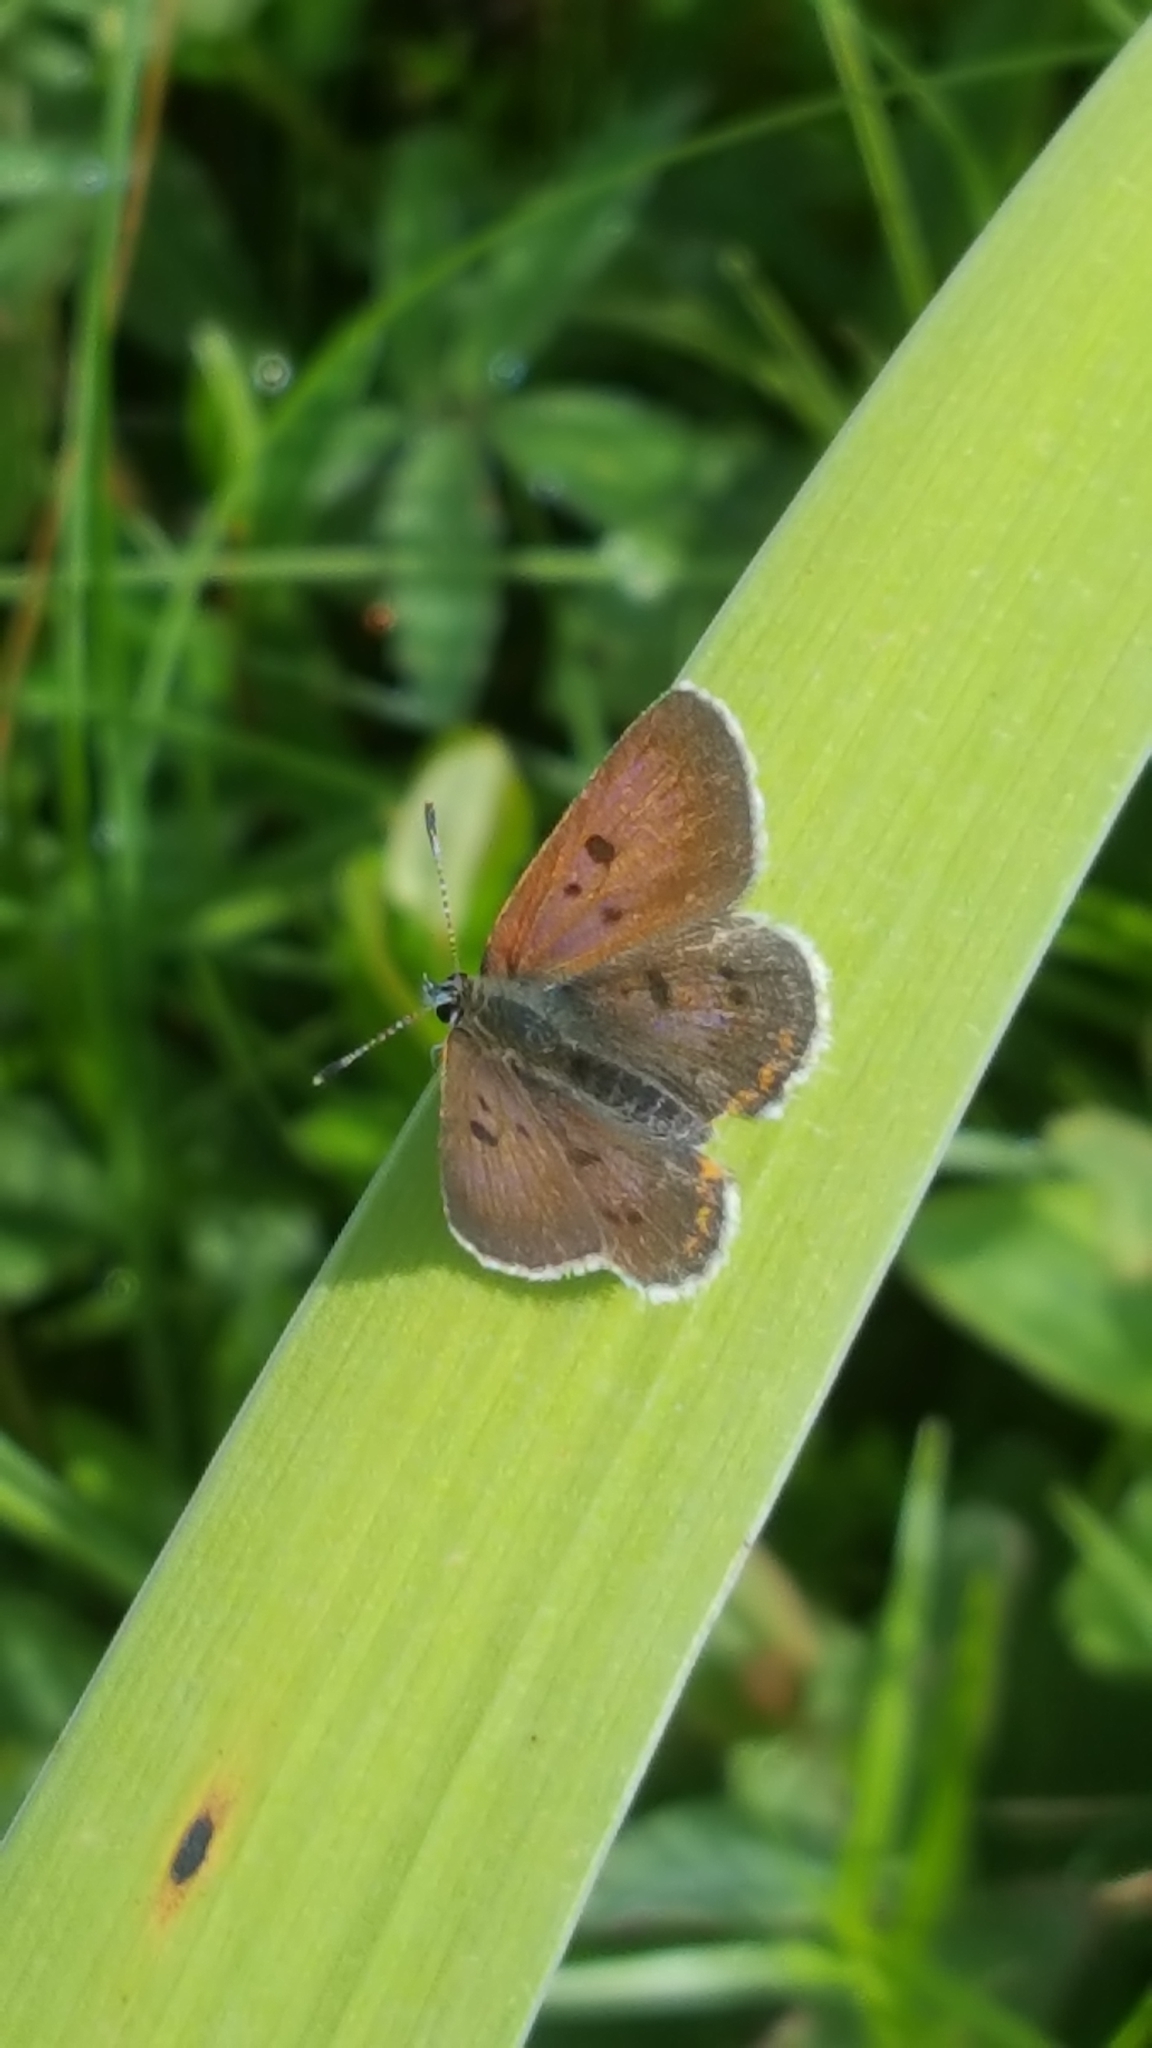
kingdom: Animalia
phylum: Arthropoda
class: Insecta
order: Lepidoptera
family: Lycaenidae
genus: Tharsalea
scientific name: Tharsalea epixanthe
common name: Bog copper
